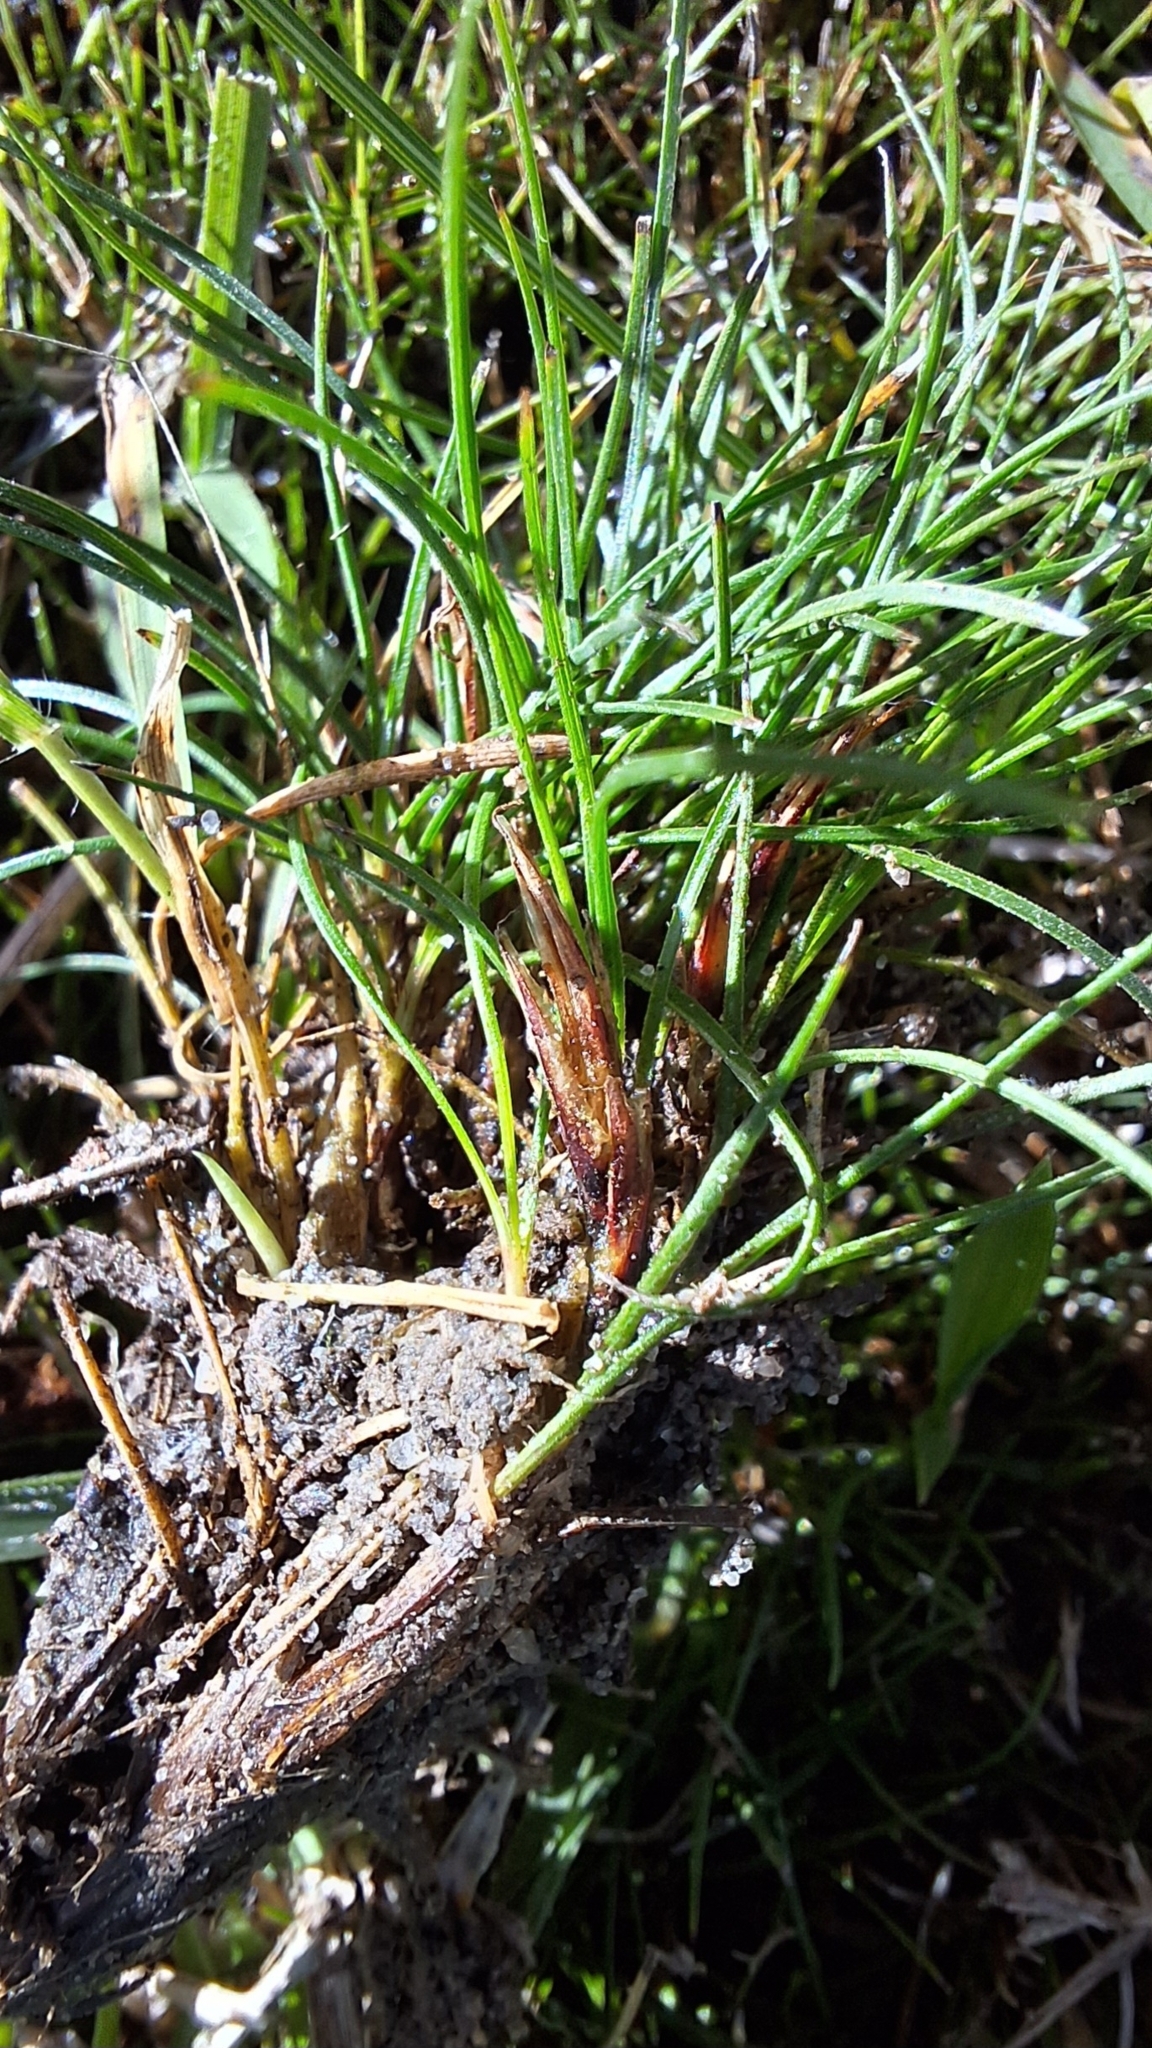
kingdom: Plantae
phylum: Tracheophyta
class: Liliopsida
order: Poales
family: Cyperaceae
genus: Schoenus
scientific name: Schoenus breviculmis
